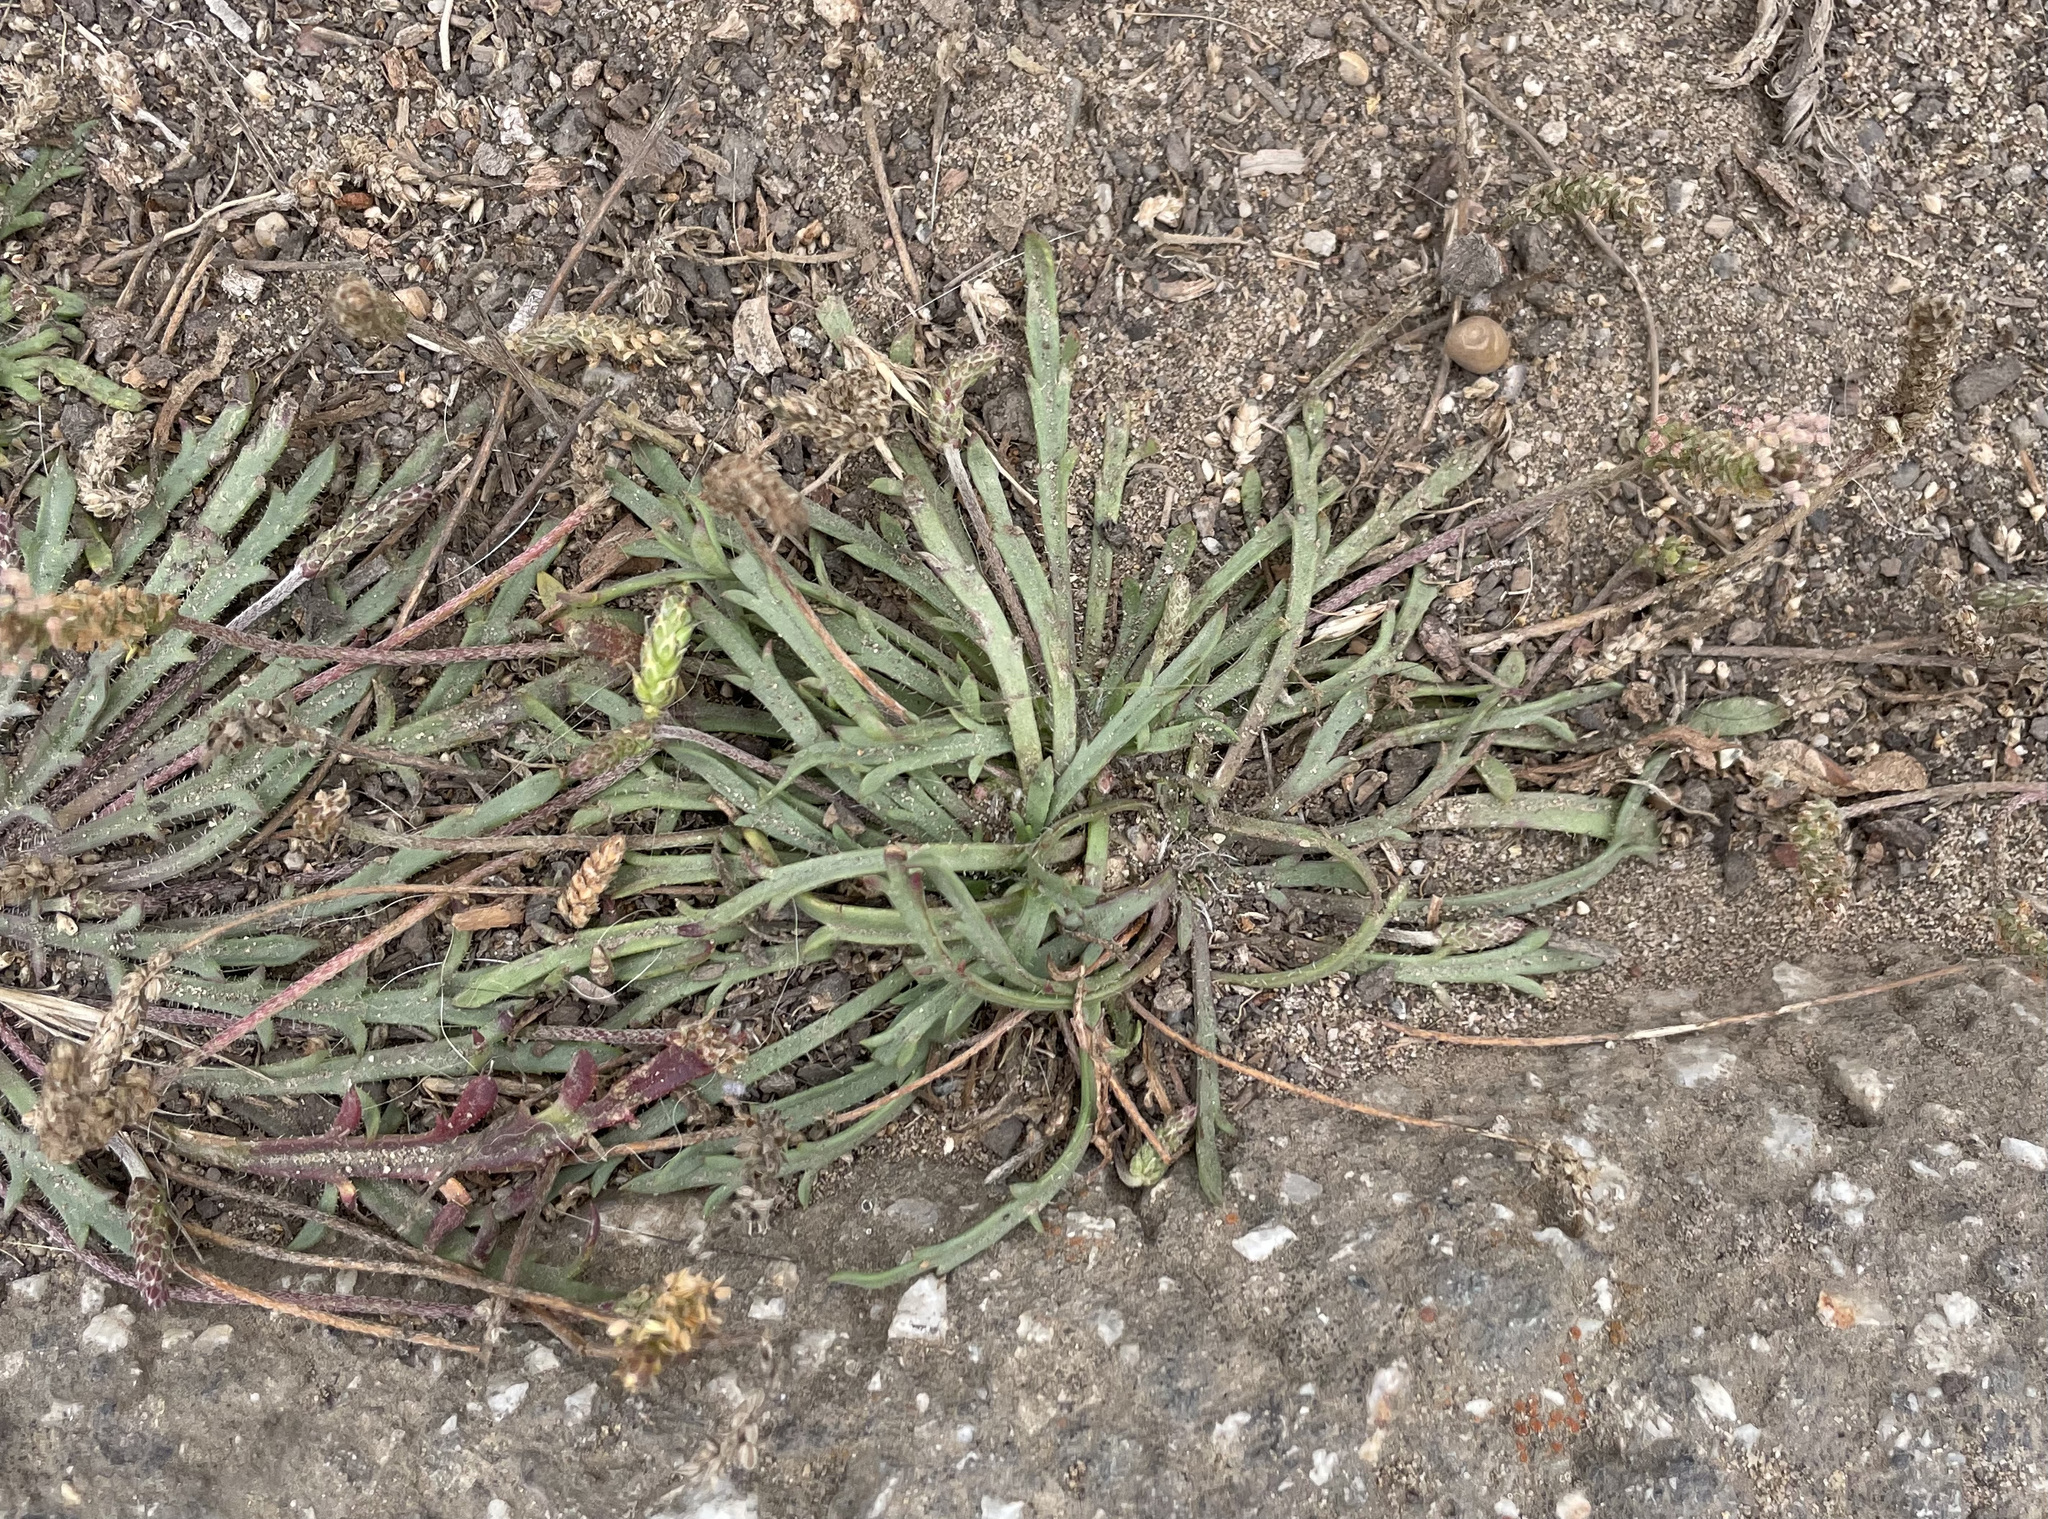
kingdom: Plantae
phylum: Tracheophyta
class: Magnoliopsida
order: Lamiales
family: Plantaginaceae
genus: Plantago
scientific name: Plantago coronopus
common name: Buck's-horn plantain
